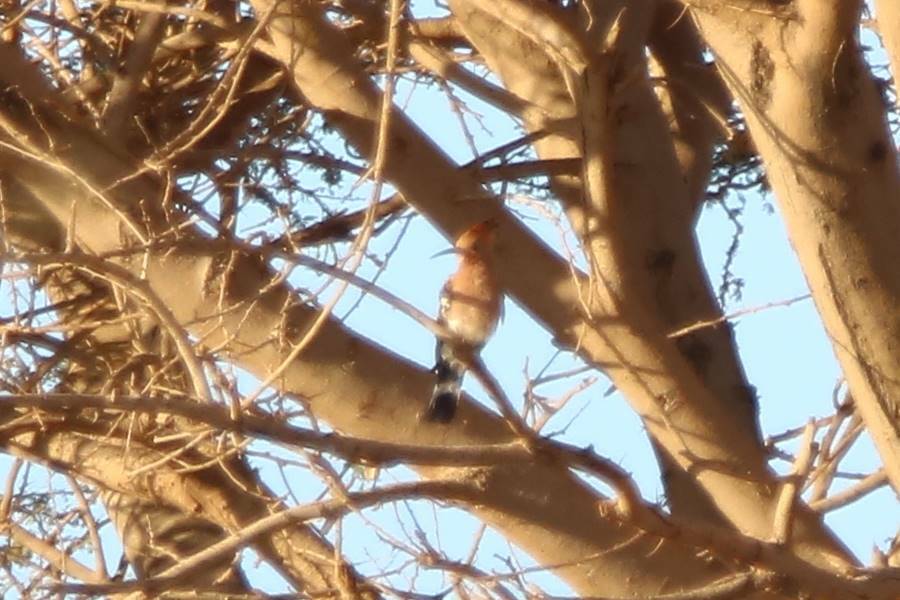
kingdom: Animalia
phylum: Chordata
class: Aves
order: Bucerotiformes
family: Upupidae
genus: Upupa
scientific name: Upupa epops
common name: Eurasian hoopoe
